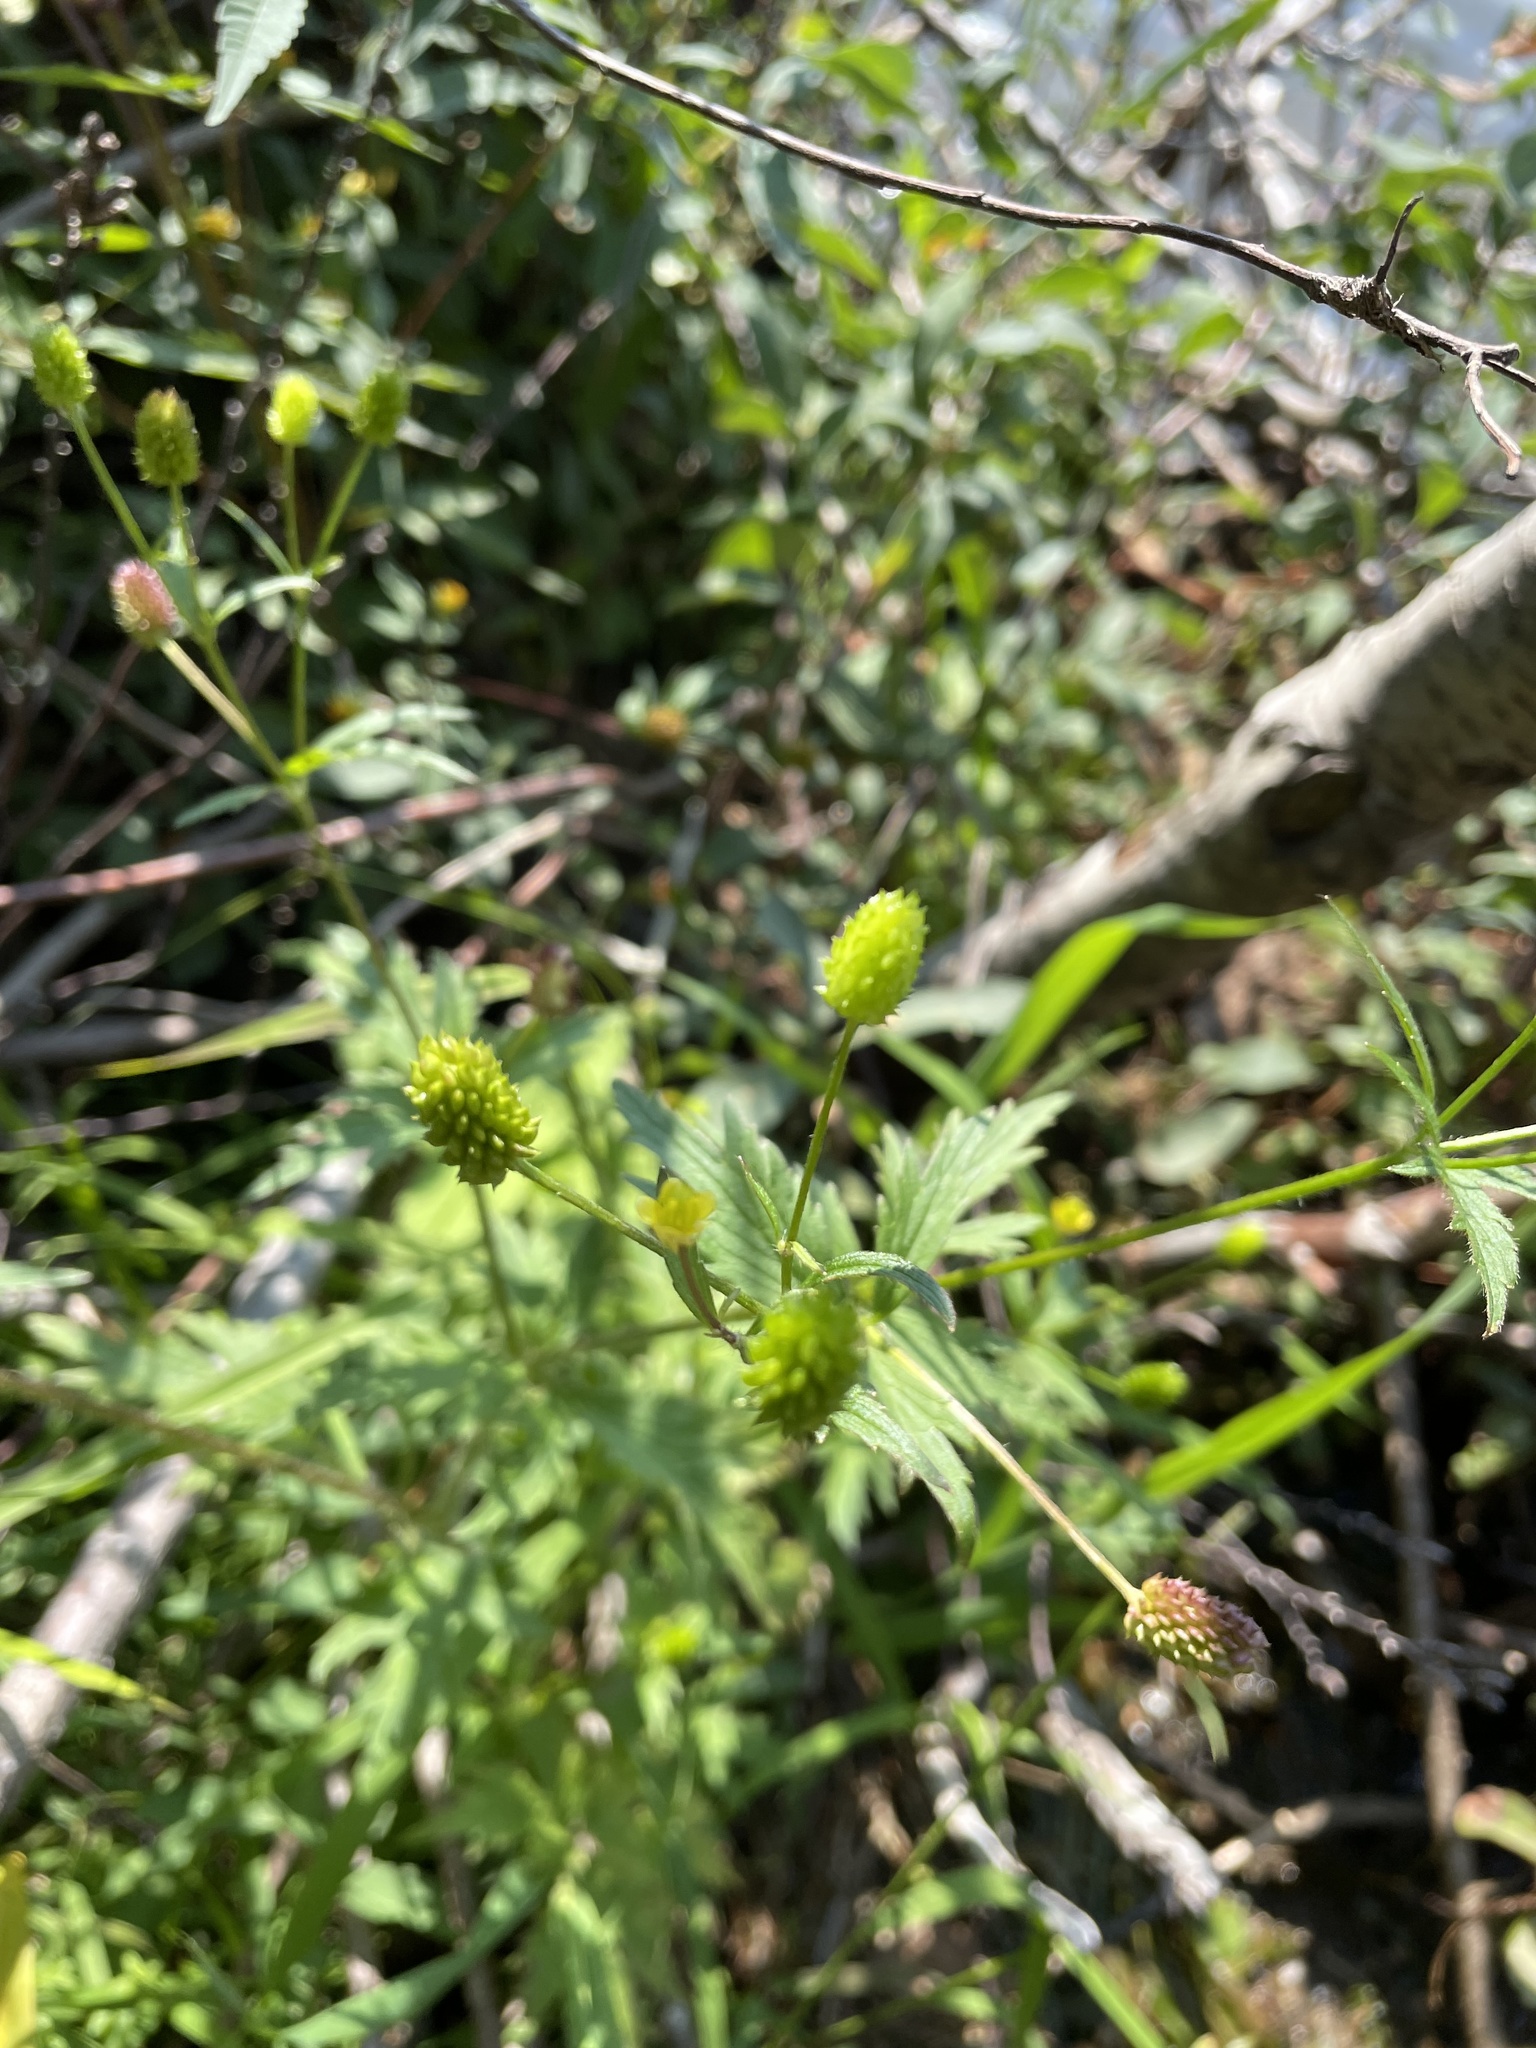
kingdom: Plantae
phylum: Tracheophyta
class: Magnoliopsida
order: Ranunculales
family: Ranunculaceae
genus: Ranunculus
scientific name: Ranunculus pensylvanicus
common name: Bristly buttercup
